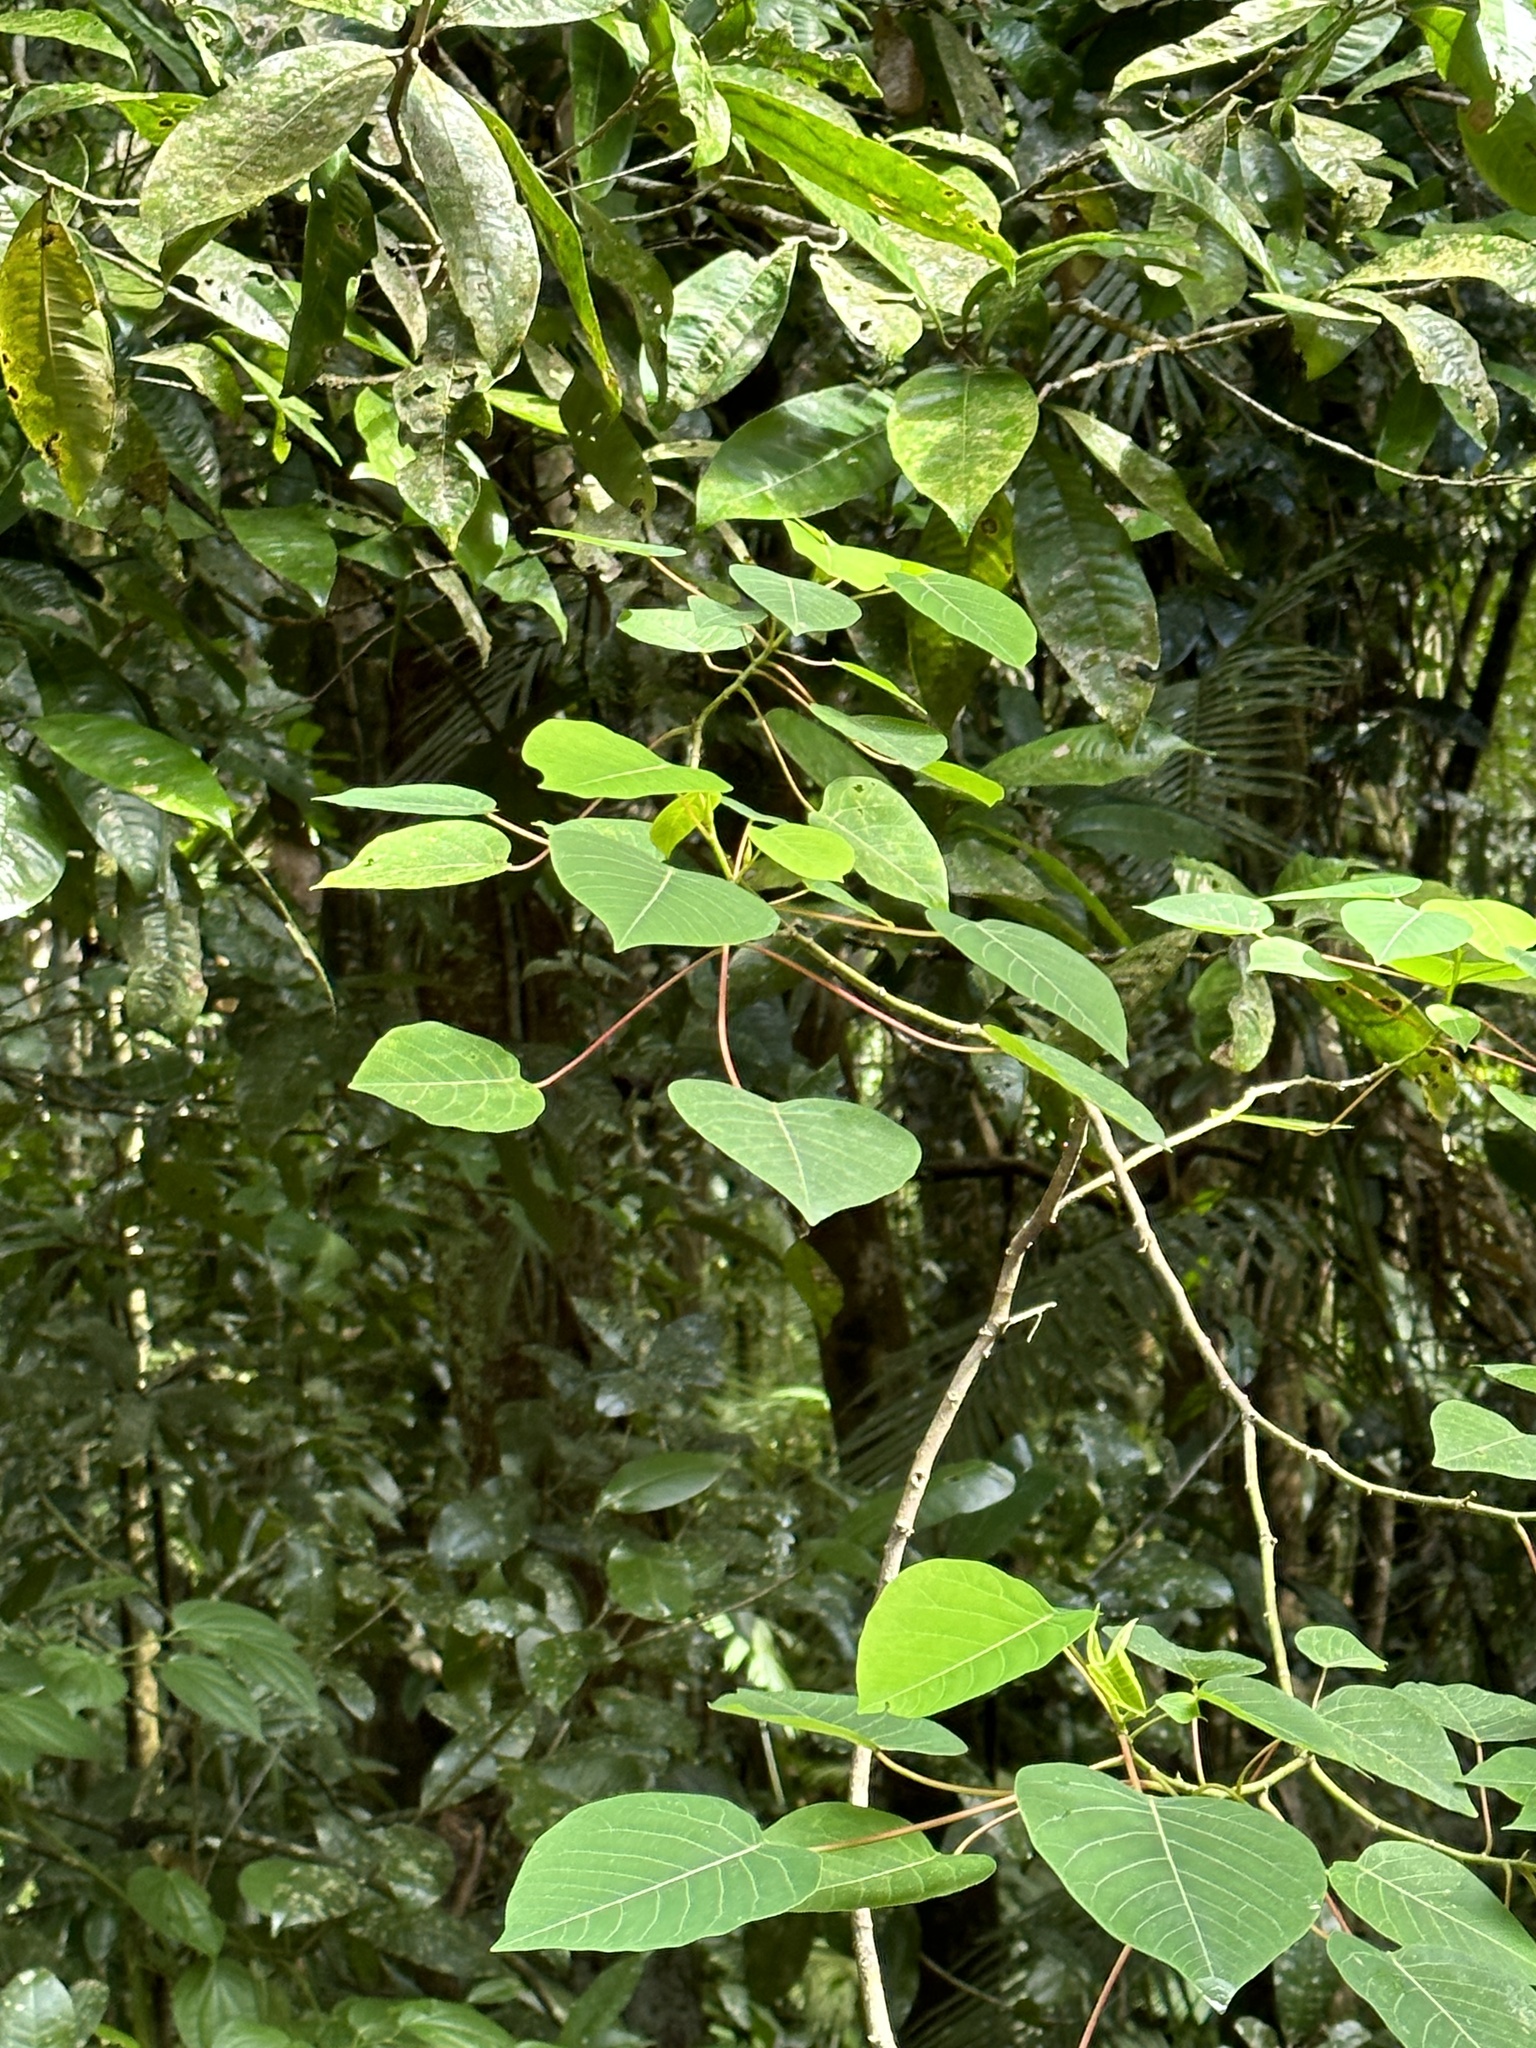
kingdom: Plantae
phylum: Tracheophyta
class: Magnoliopsida
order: Malpighiales
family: Euphorbiaceae
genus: Homalanthus
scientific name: Homalanthus novoguineensis
